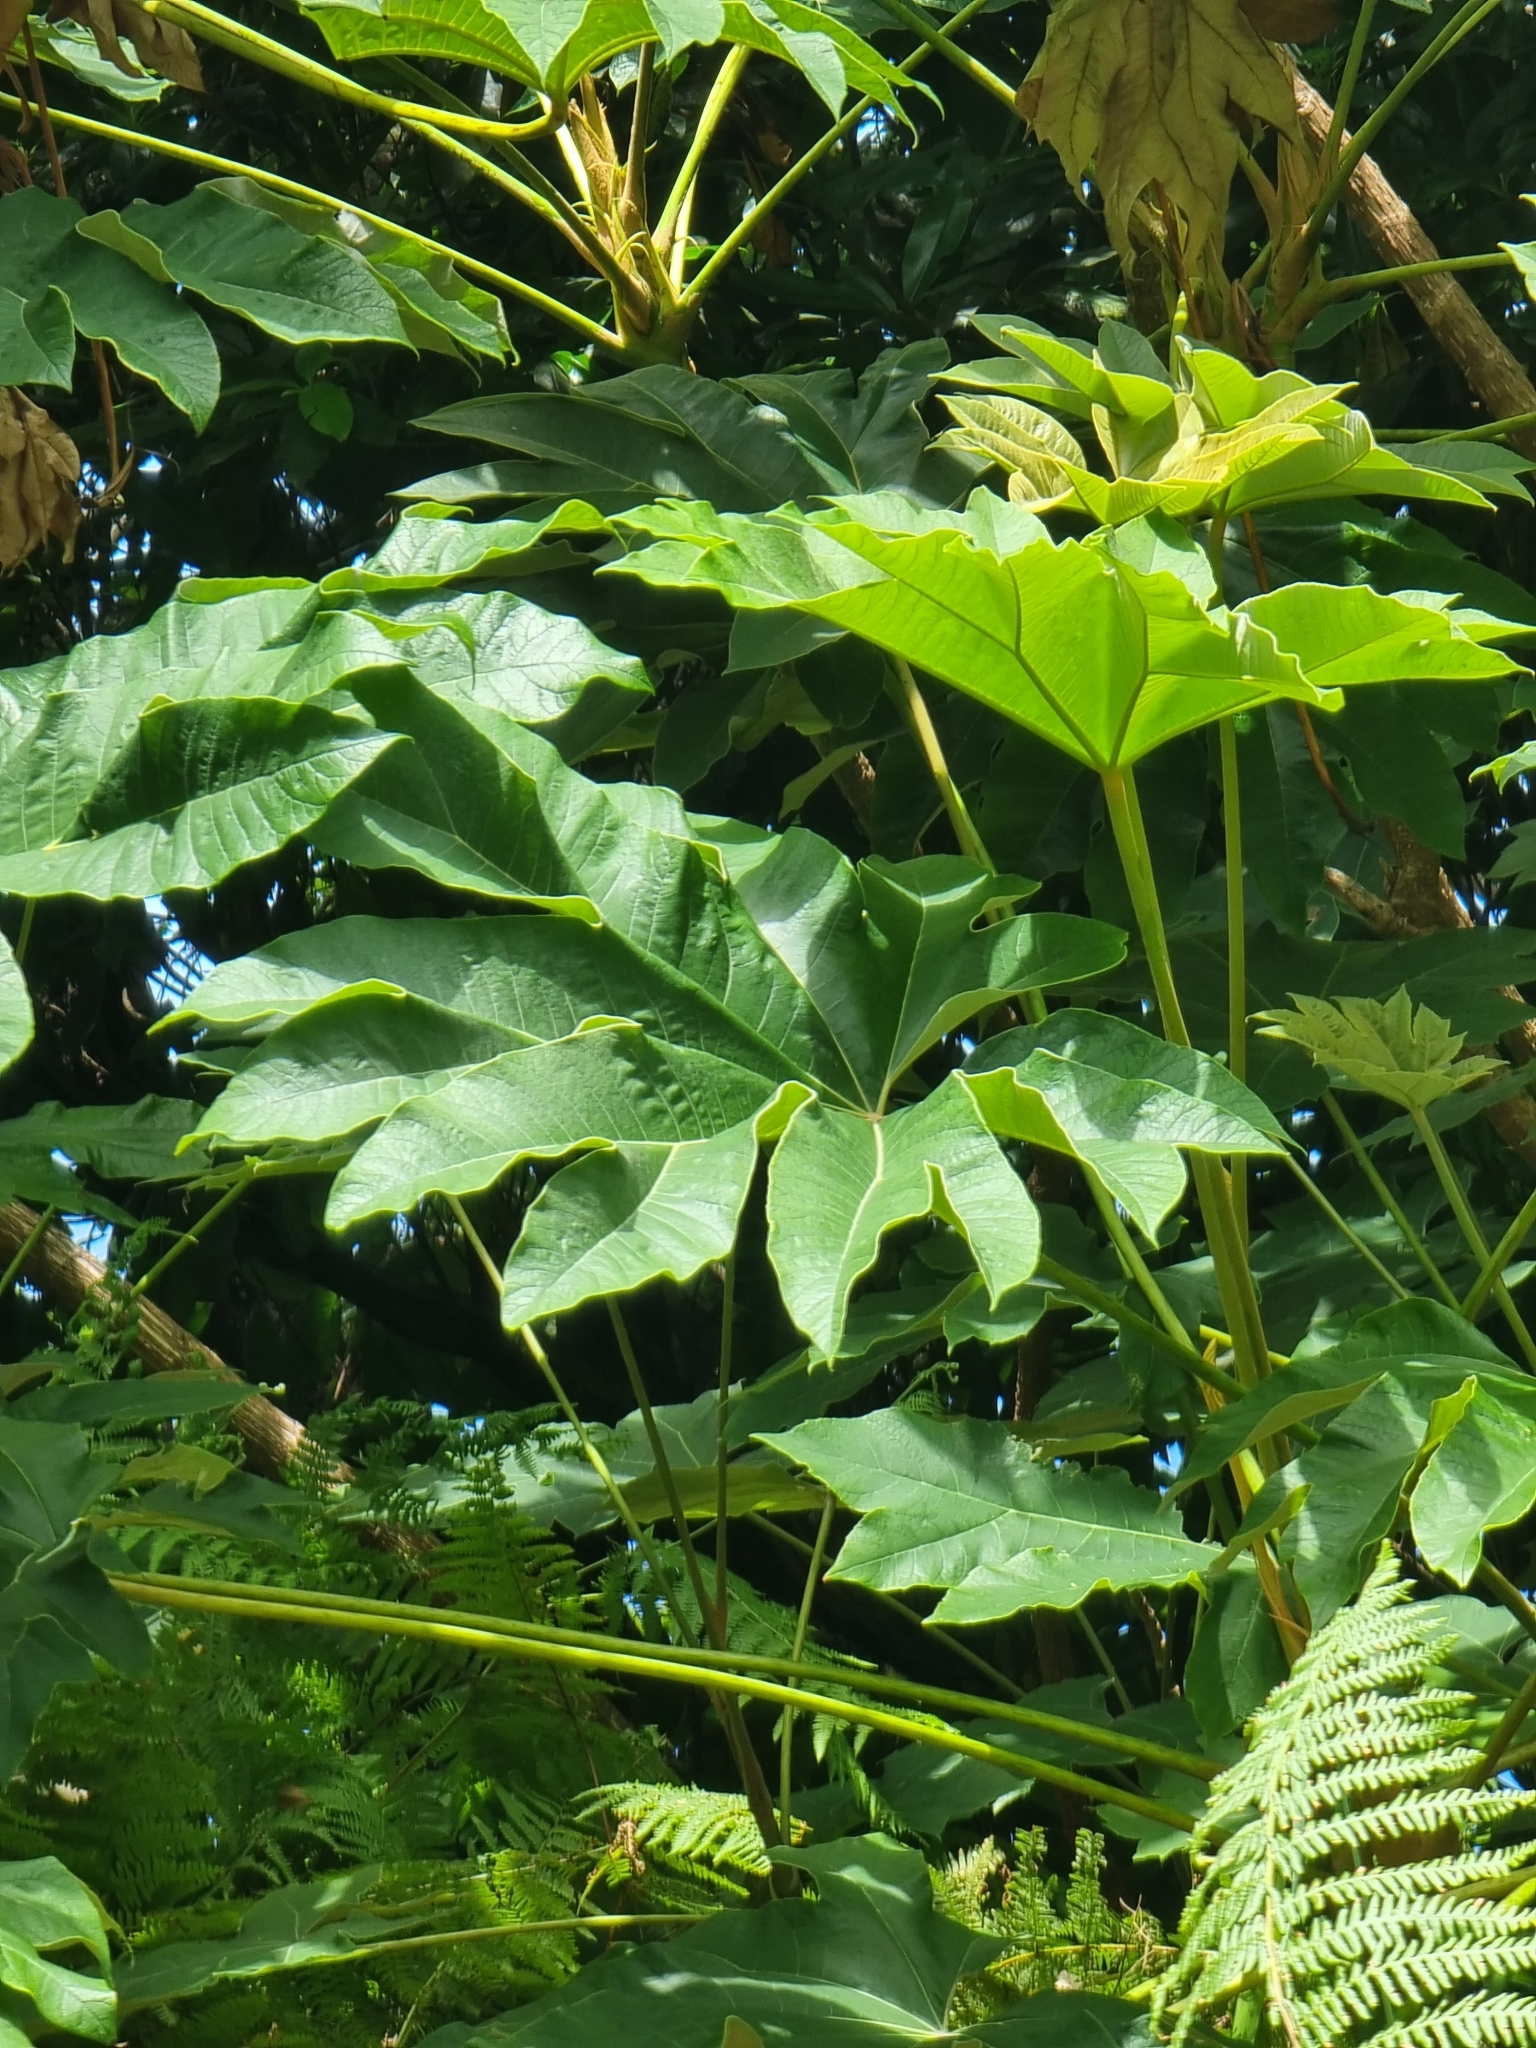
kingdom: Plantae
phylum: Tracheophyta
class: Magnoliopsida
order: Apiales
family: Araliaceae
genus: Tetrapanax
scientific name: Tetrapanax papyrifer
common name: Rice-paper plant
